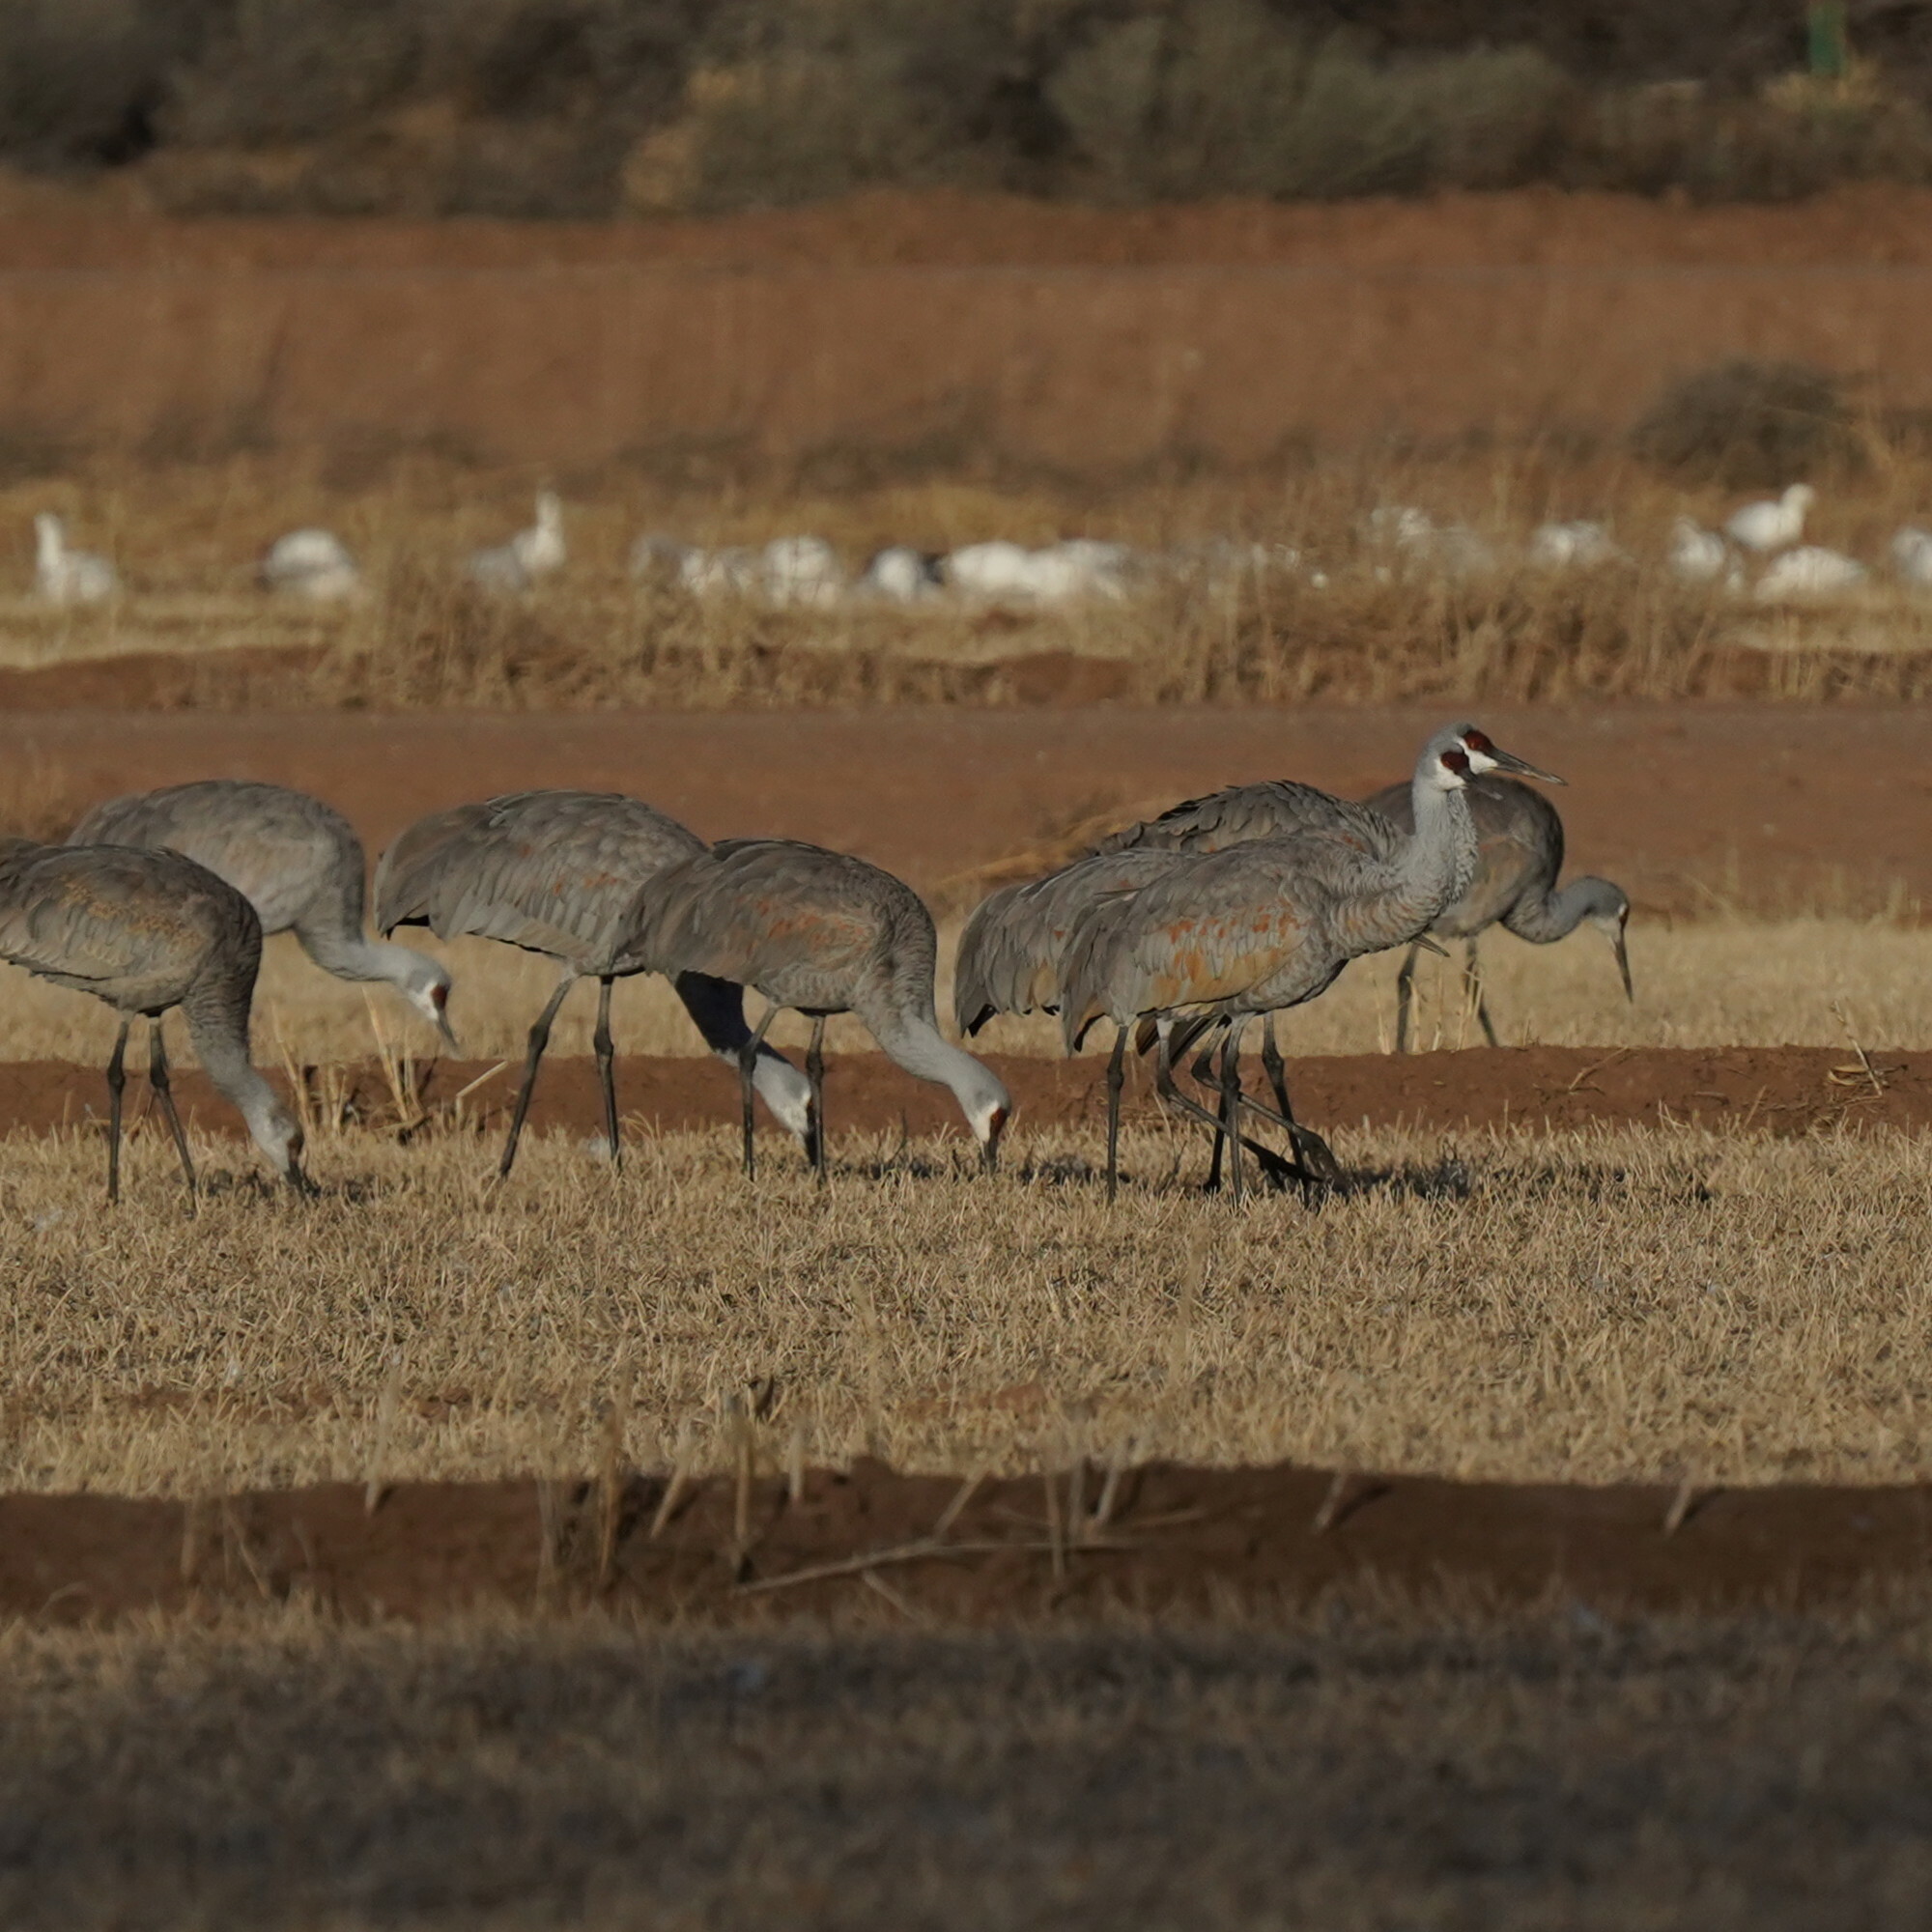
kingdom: Animalia
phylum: Chordata
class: Aves
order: Gruiformes
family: Gruidae
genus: Grus
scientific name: Grus canadensis
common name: Sandhill crane
